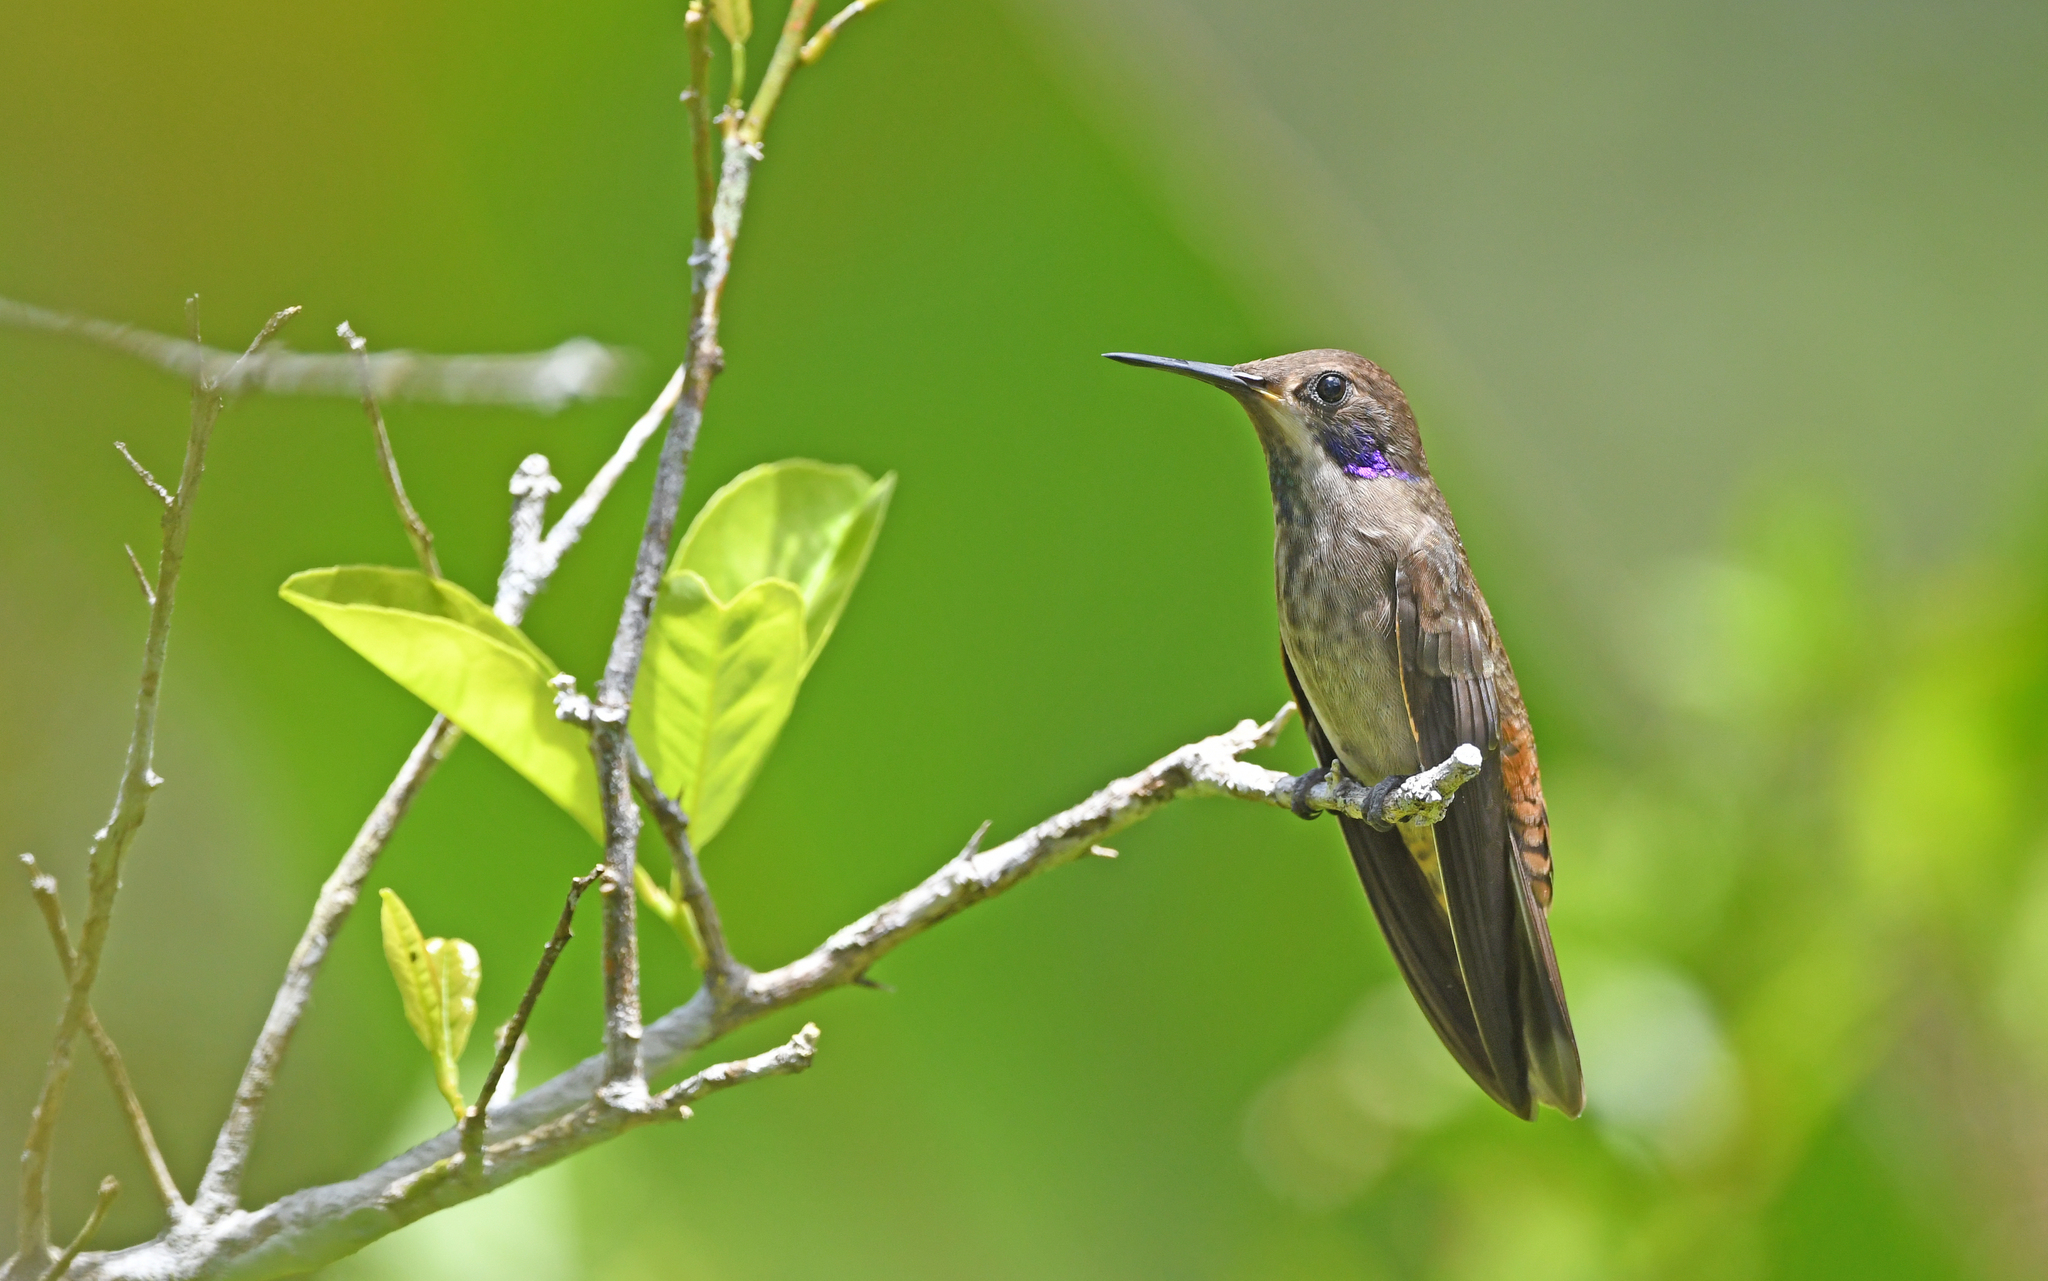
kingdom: Animalia
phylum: Chordata
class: Aves
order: Apodiformes
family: Trochilidae
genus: Colibri
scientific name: Colibri delphinae
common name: Brown violetear
